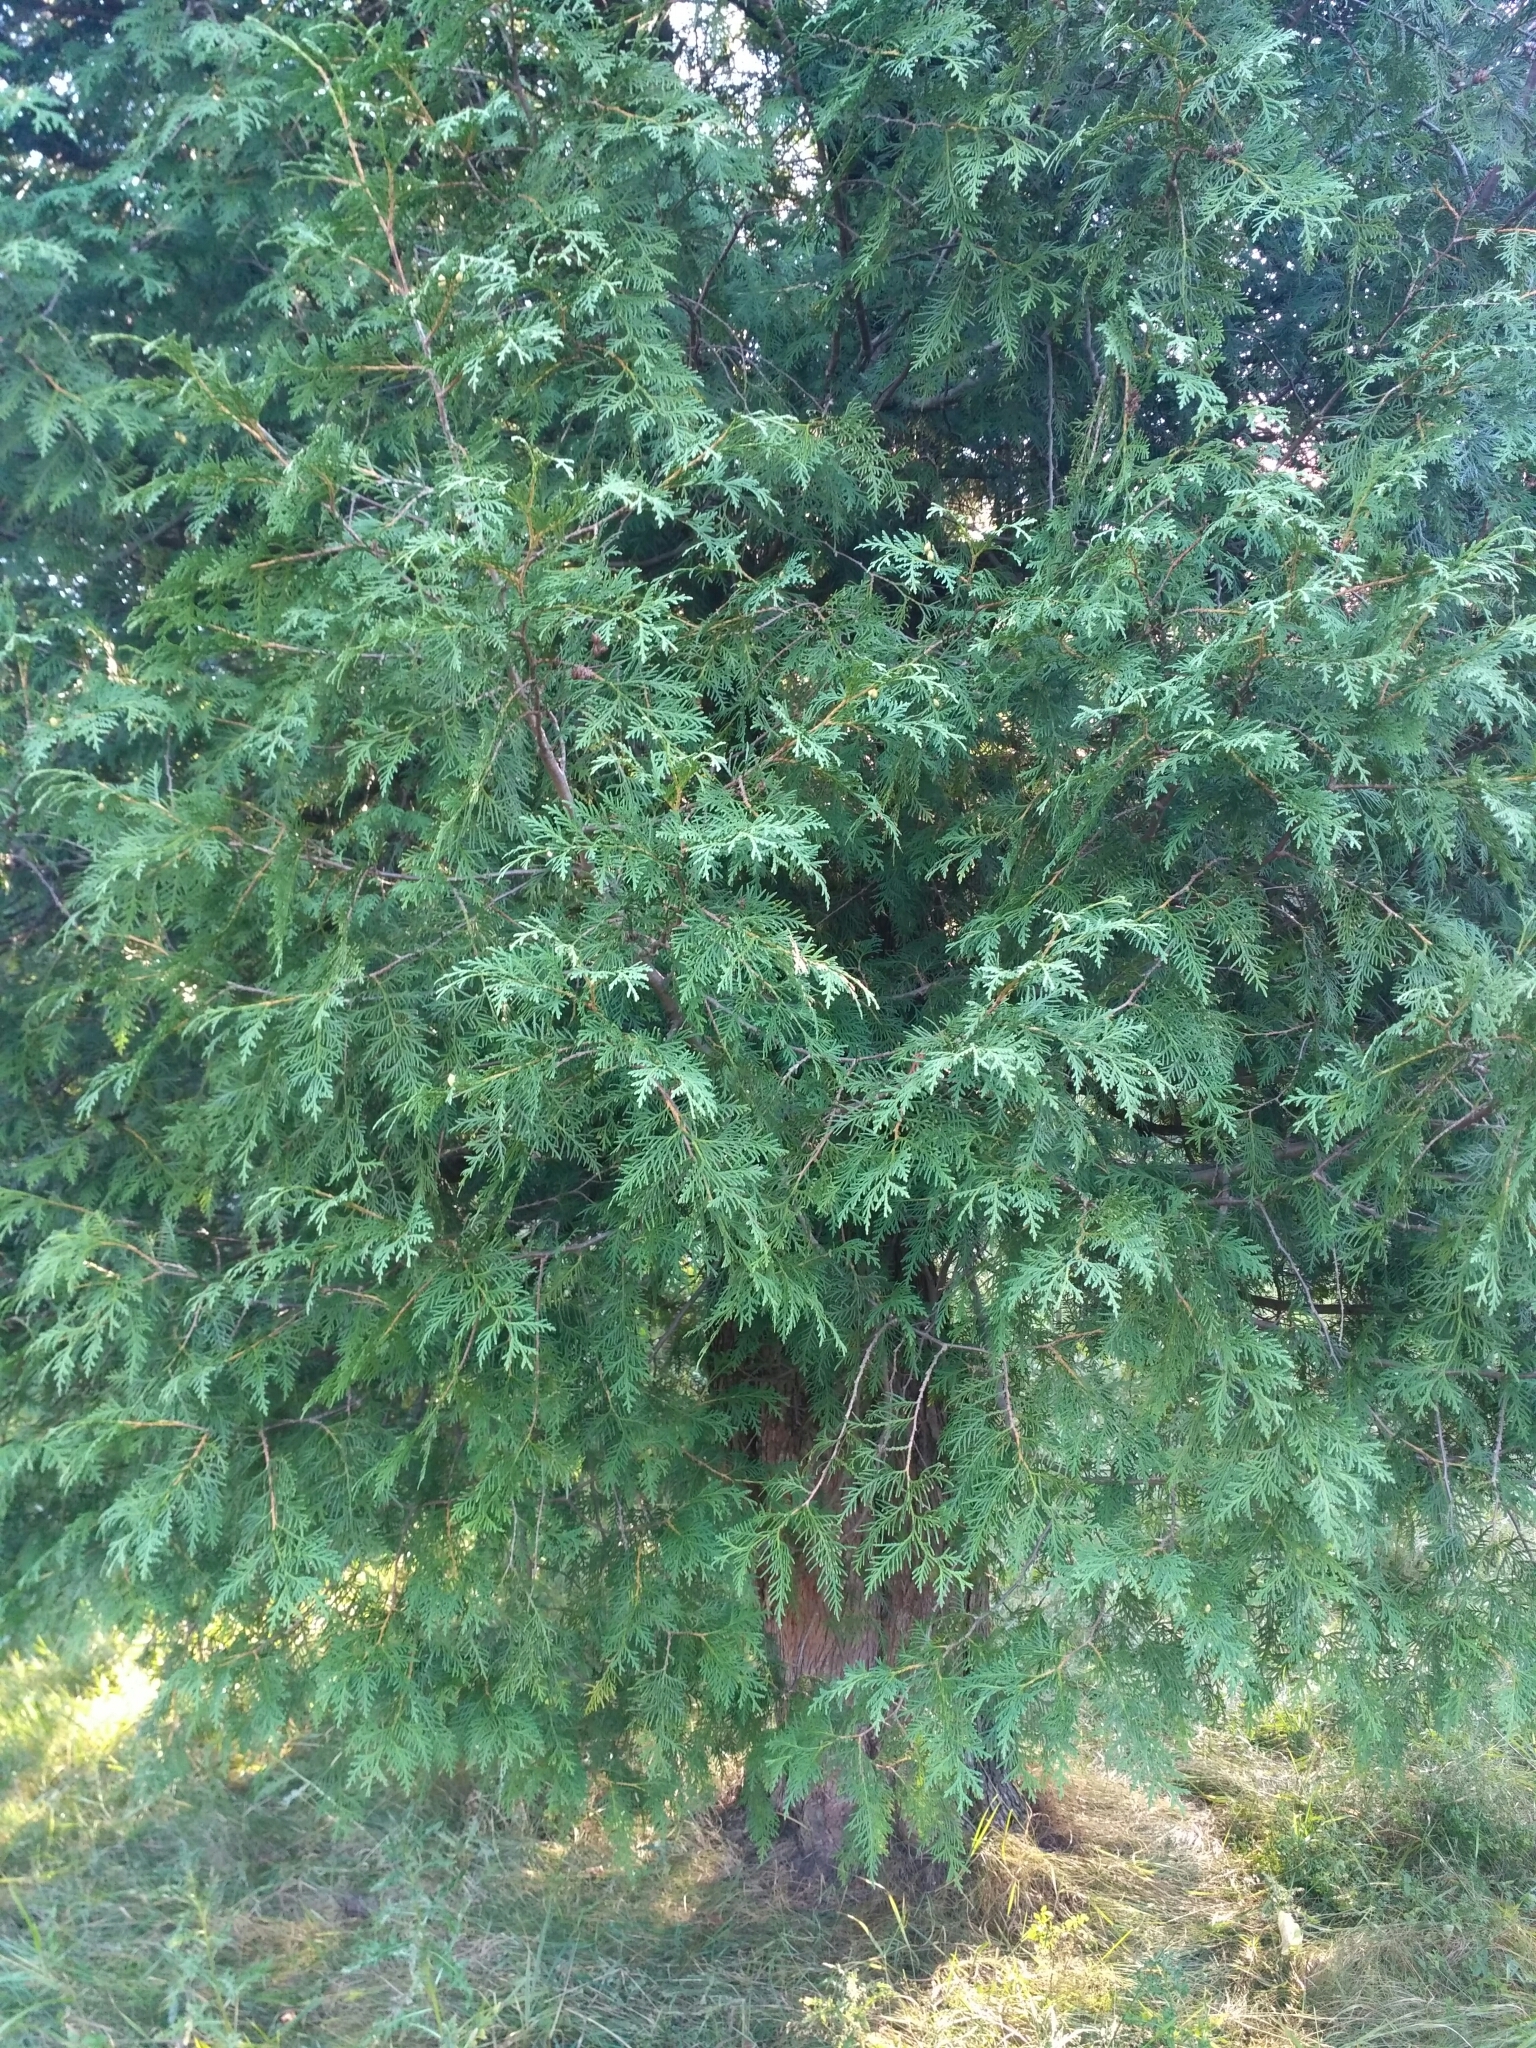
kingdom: Plantae
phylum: Tracheophyta
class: Pinopsida
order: Pinales
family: Cupressaceae
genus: Thuja
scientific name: Thuja occidentalis
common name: Northern white-cedar
